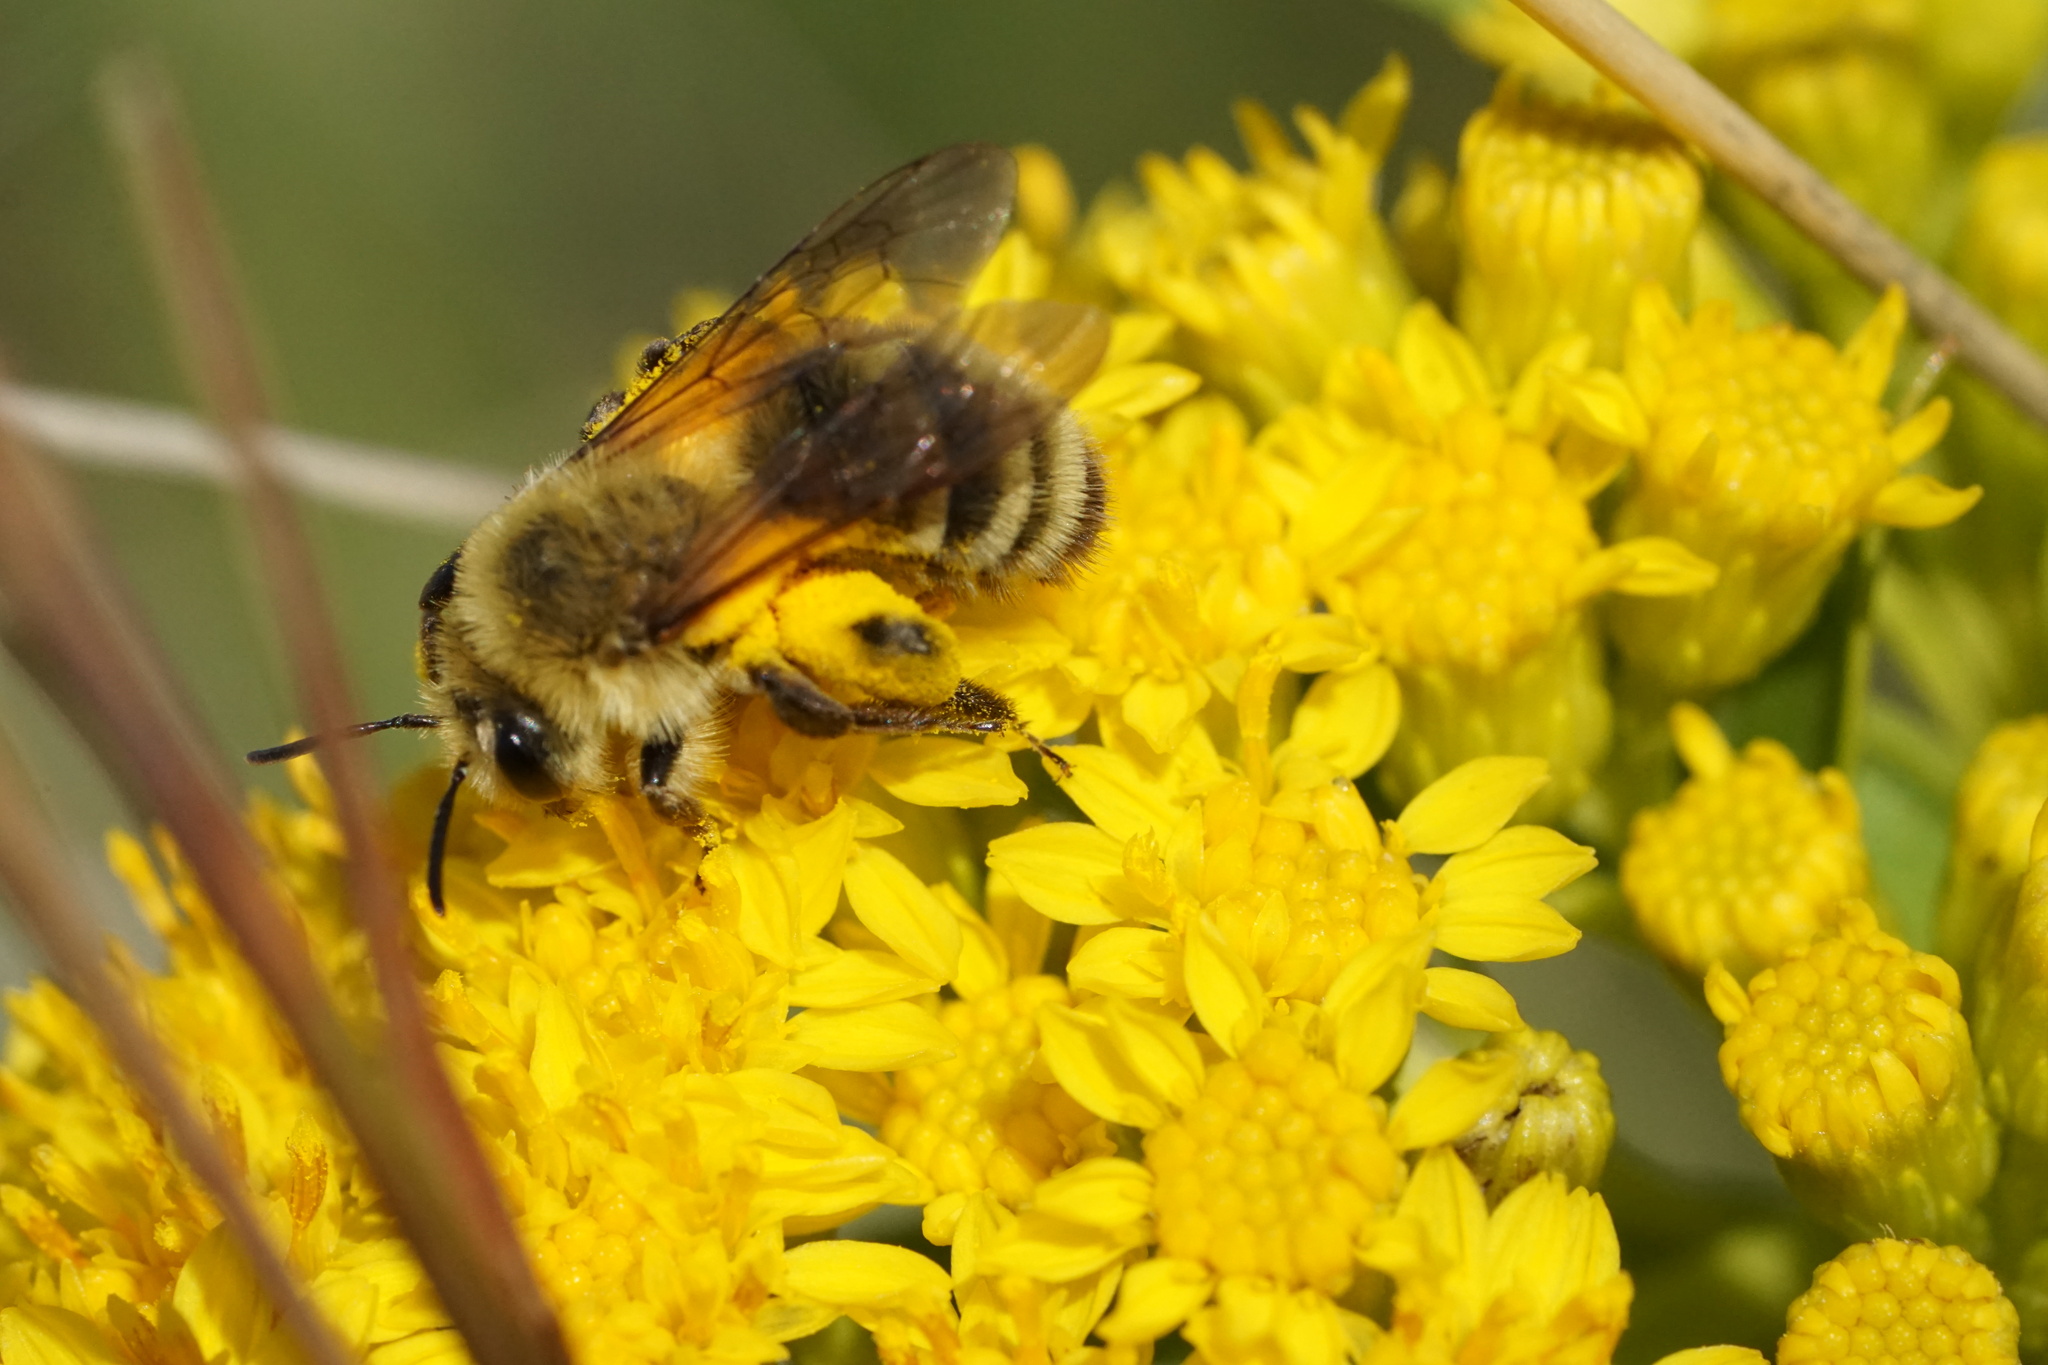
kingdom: Animalia
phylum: Arthropoda
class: Insecta
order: Hymenoptera
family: Andrenidae
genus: Andrena
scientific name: Andrena hirticincta
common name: Hairy-banded mining bee
